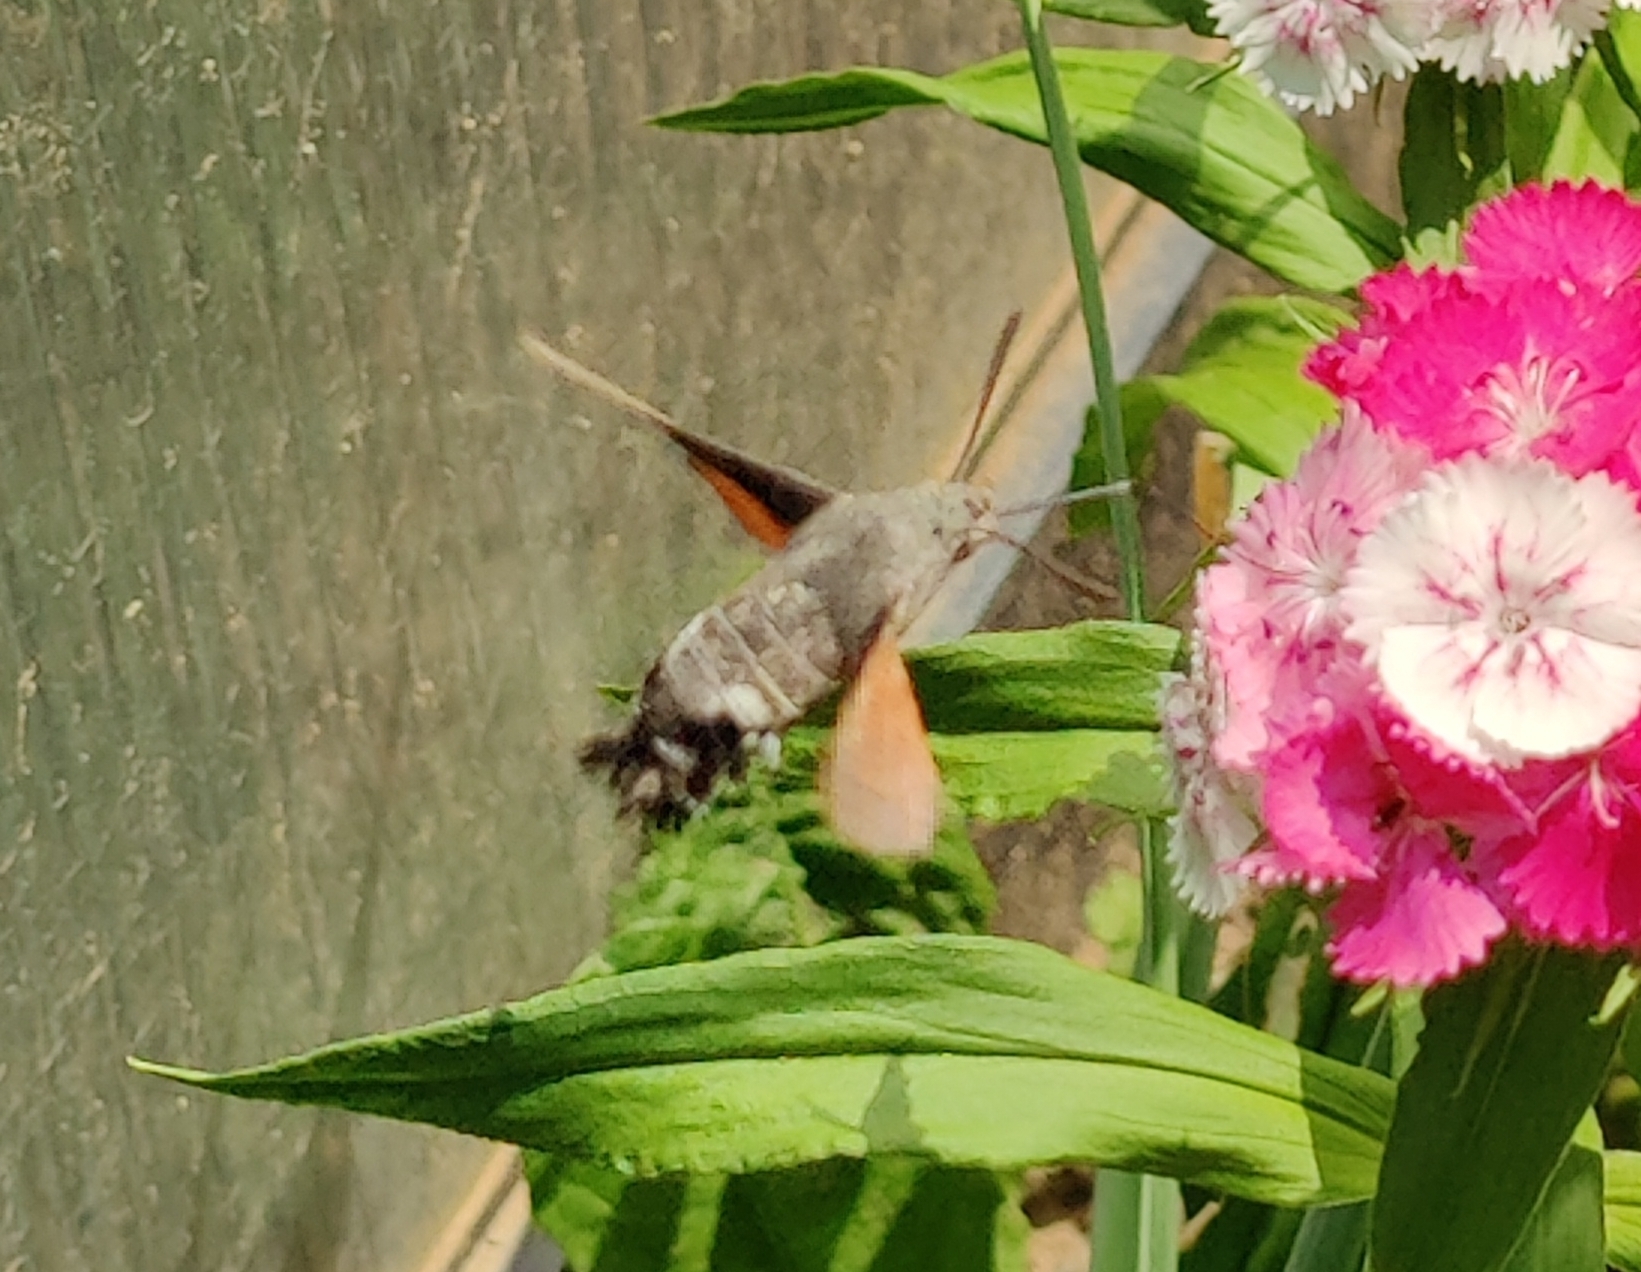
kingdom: Animalia
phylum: Arthropoda
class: Insecta
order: Lepidoptera
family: Sphingidae
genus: Macroglossum
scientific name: Macroglossum stellatarum
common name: Humming-bird hawk-moth
